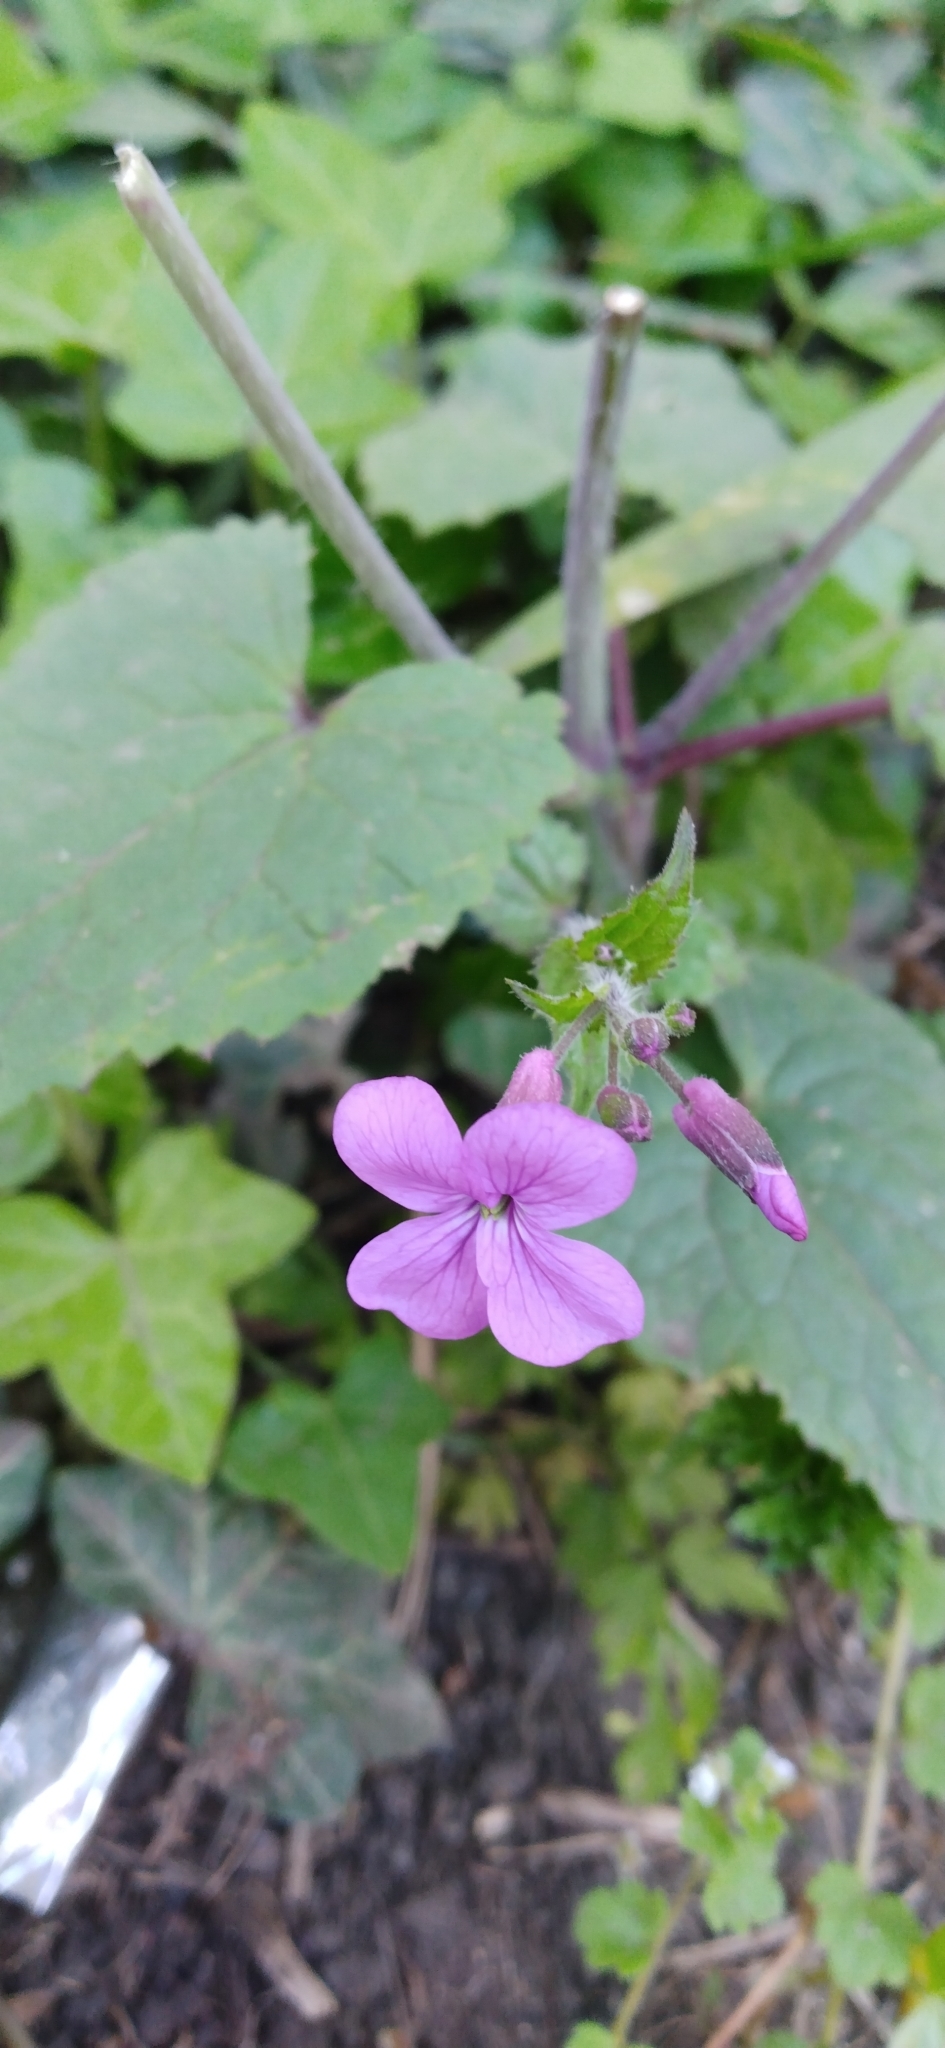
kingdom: Plantae
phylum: Tracheophyta
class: Magnoliopsida
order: Brassicales
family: Brassicaceae
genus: Lunaria
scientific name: Lunaria annua
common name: Honesty
